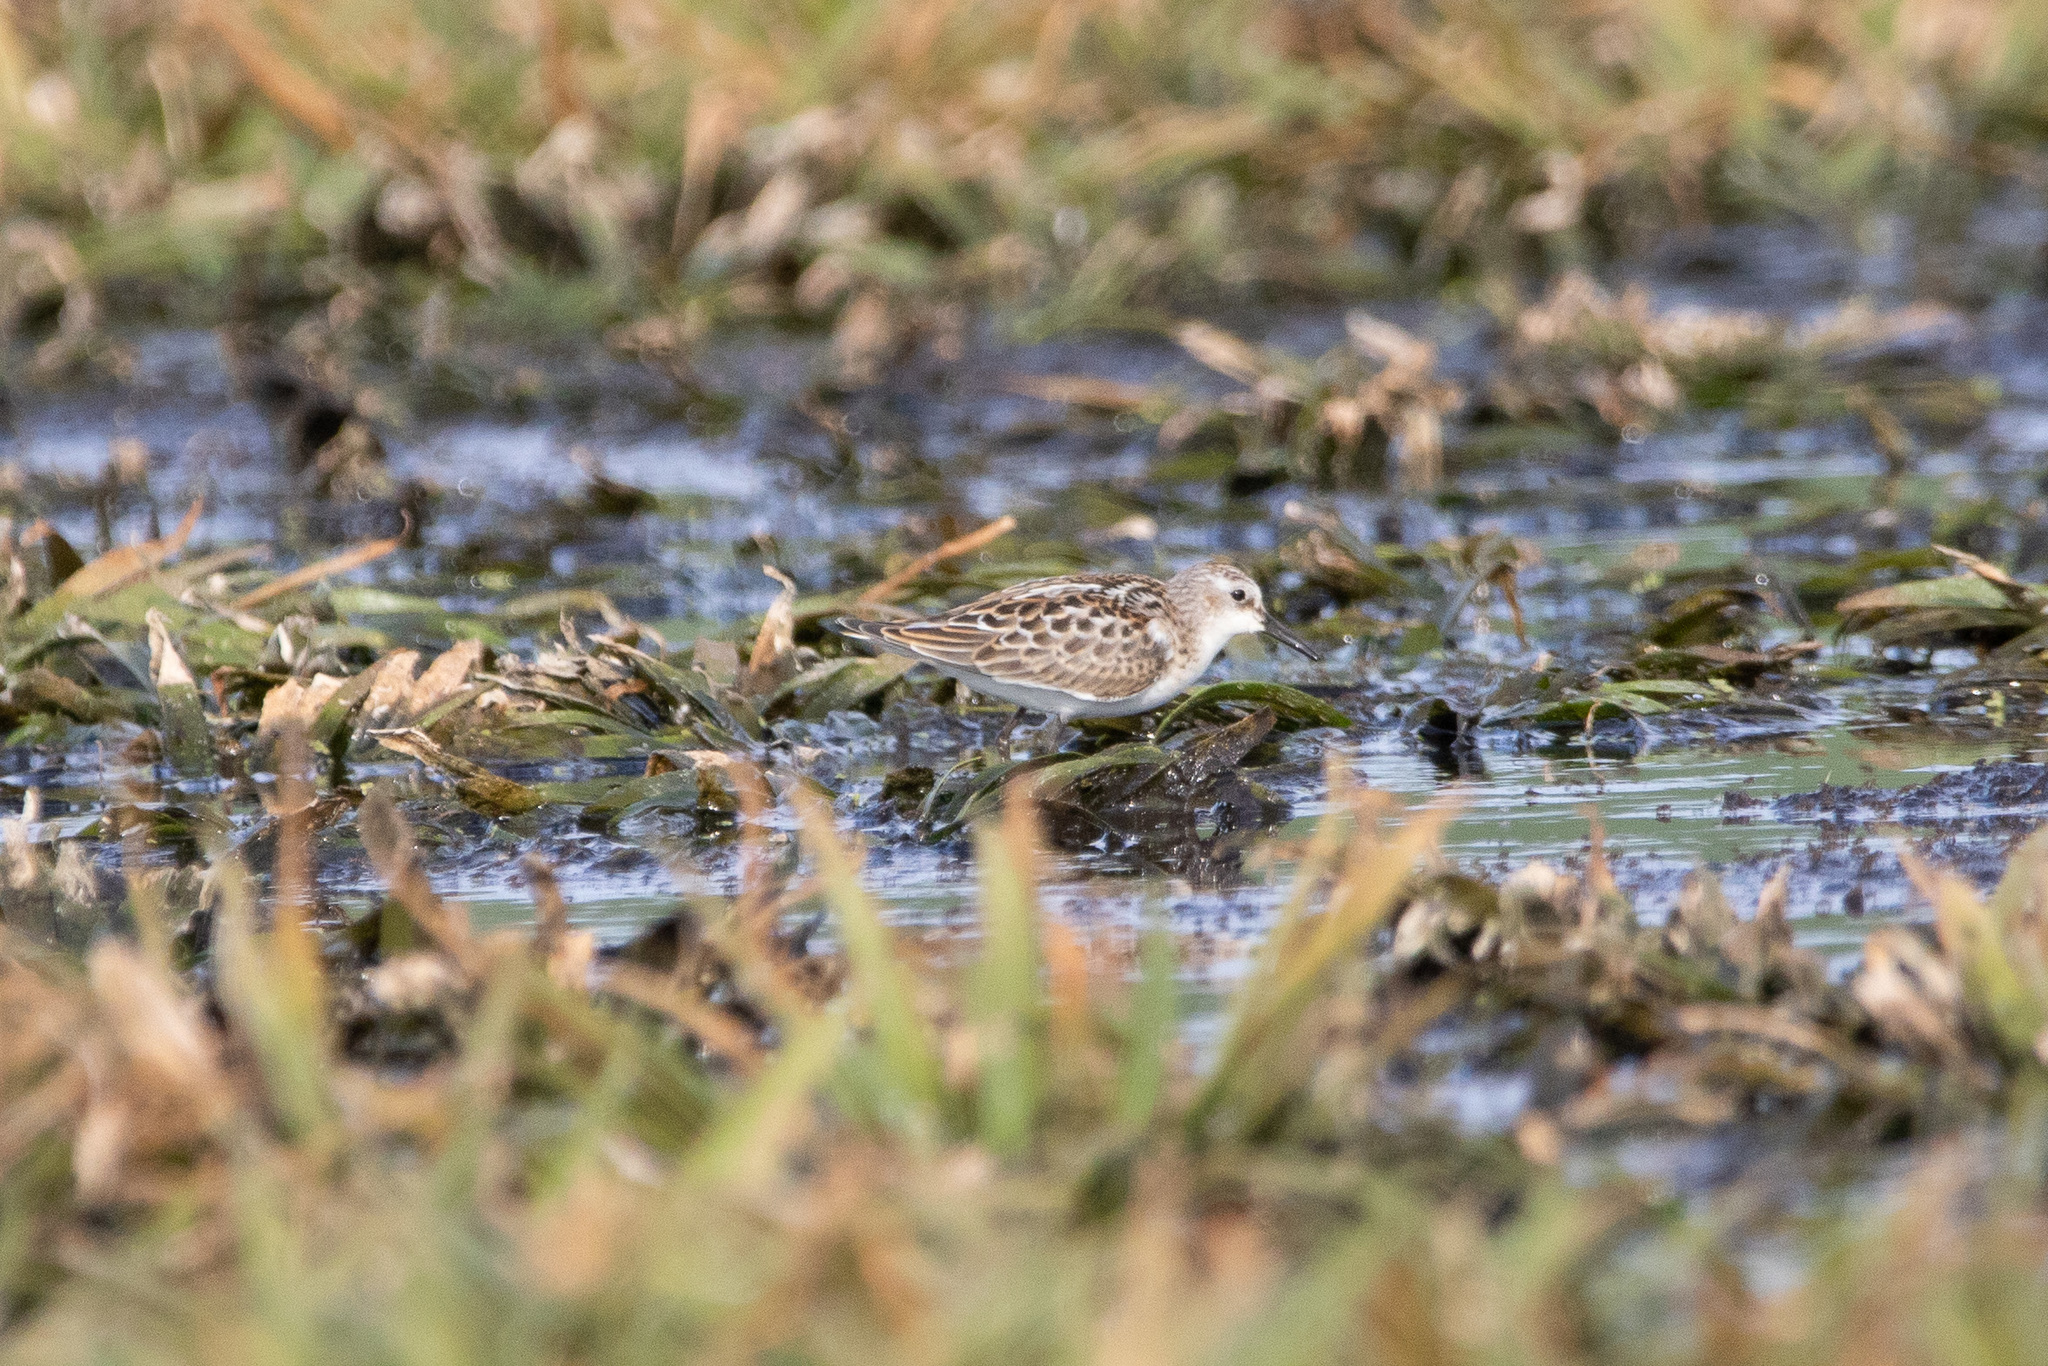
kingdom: Animalia
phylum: Chordata
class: Aves
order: Charadriiformes
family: Scolopacidae
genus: Calidris
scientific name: Calidris minuta
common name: Little stint
